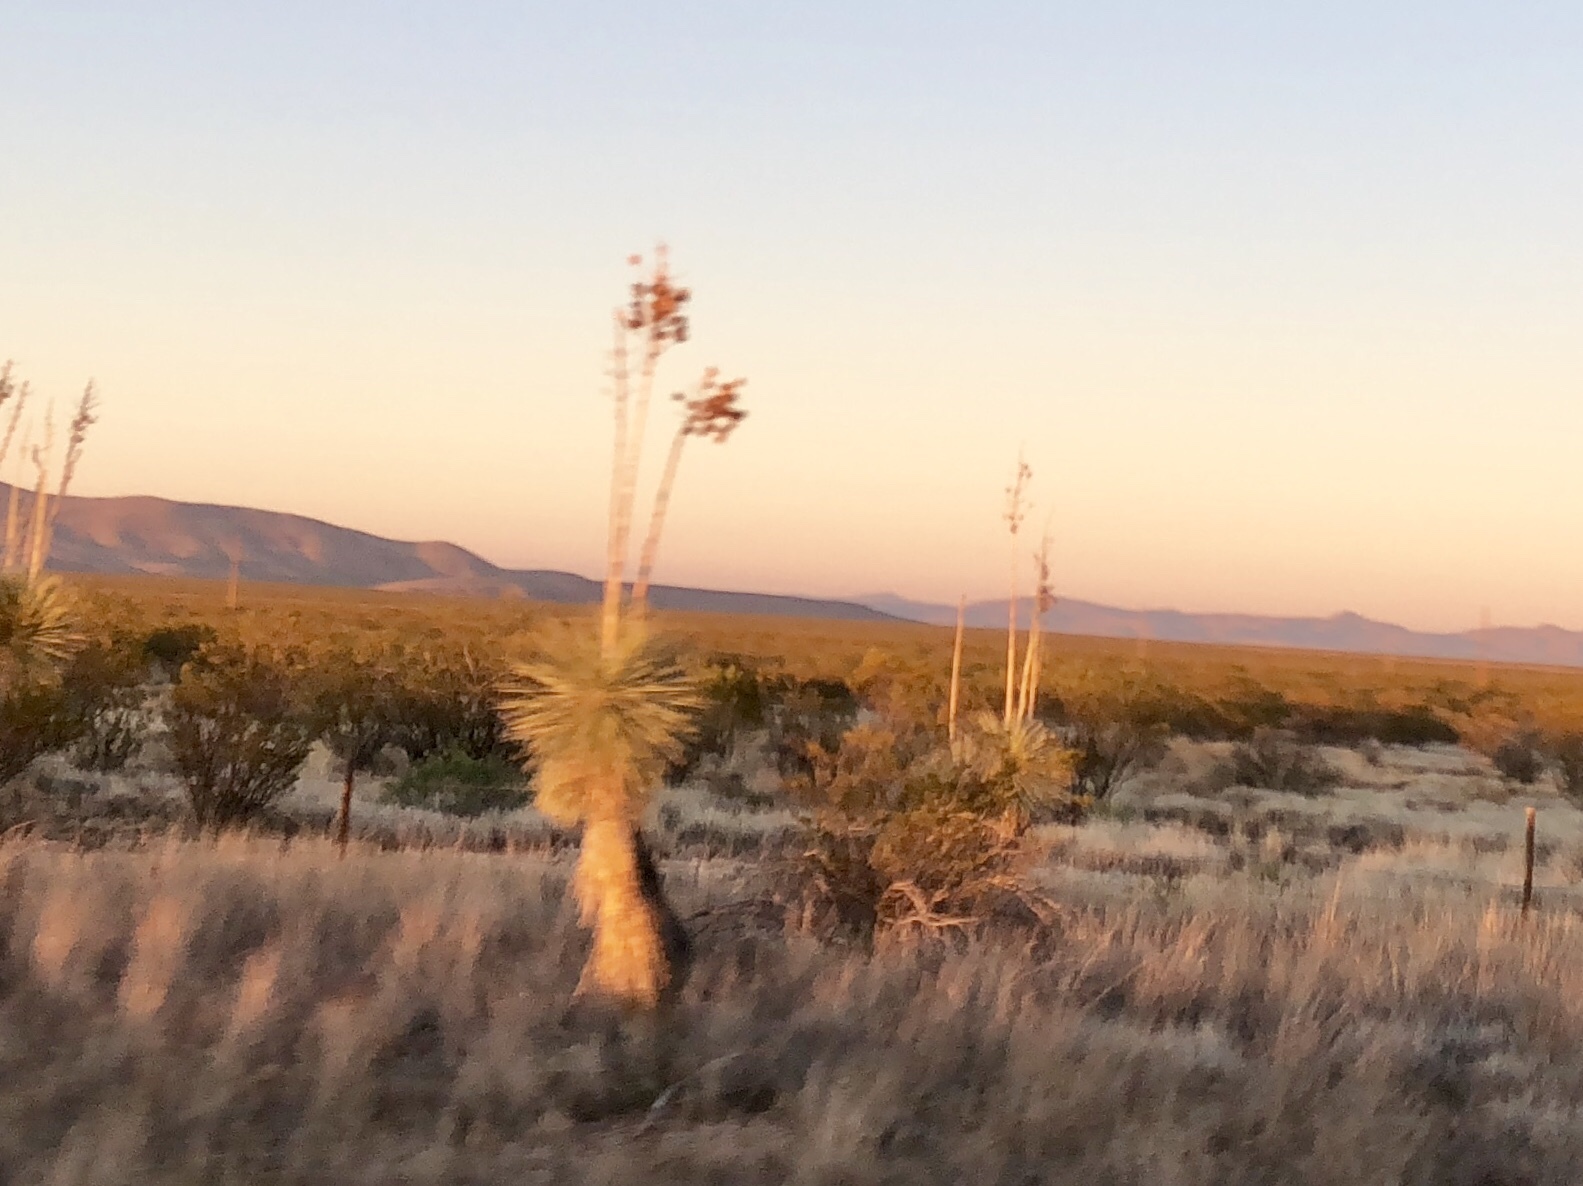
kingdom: Plantae
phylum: Tracheophyta
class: Liliopsida
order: Asparagales
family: Asparagaceae
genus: Yucca
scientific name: Yucca elata
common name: Palmella
